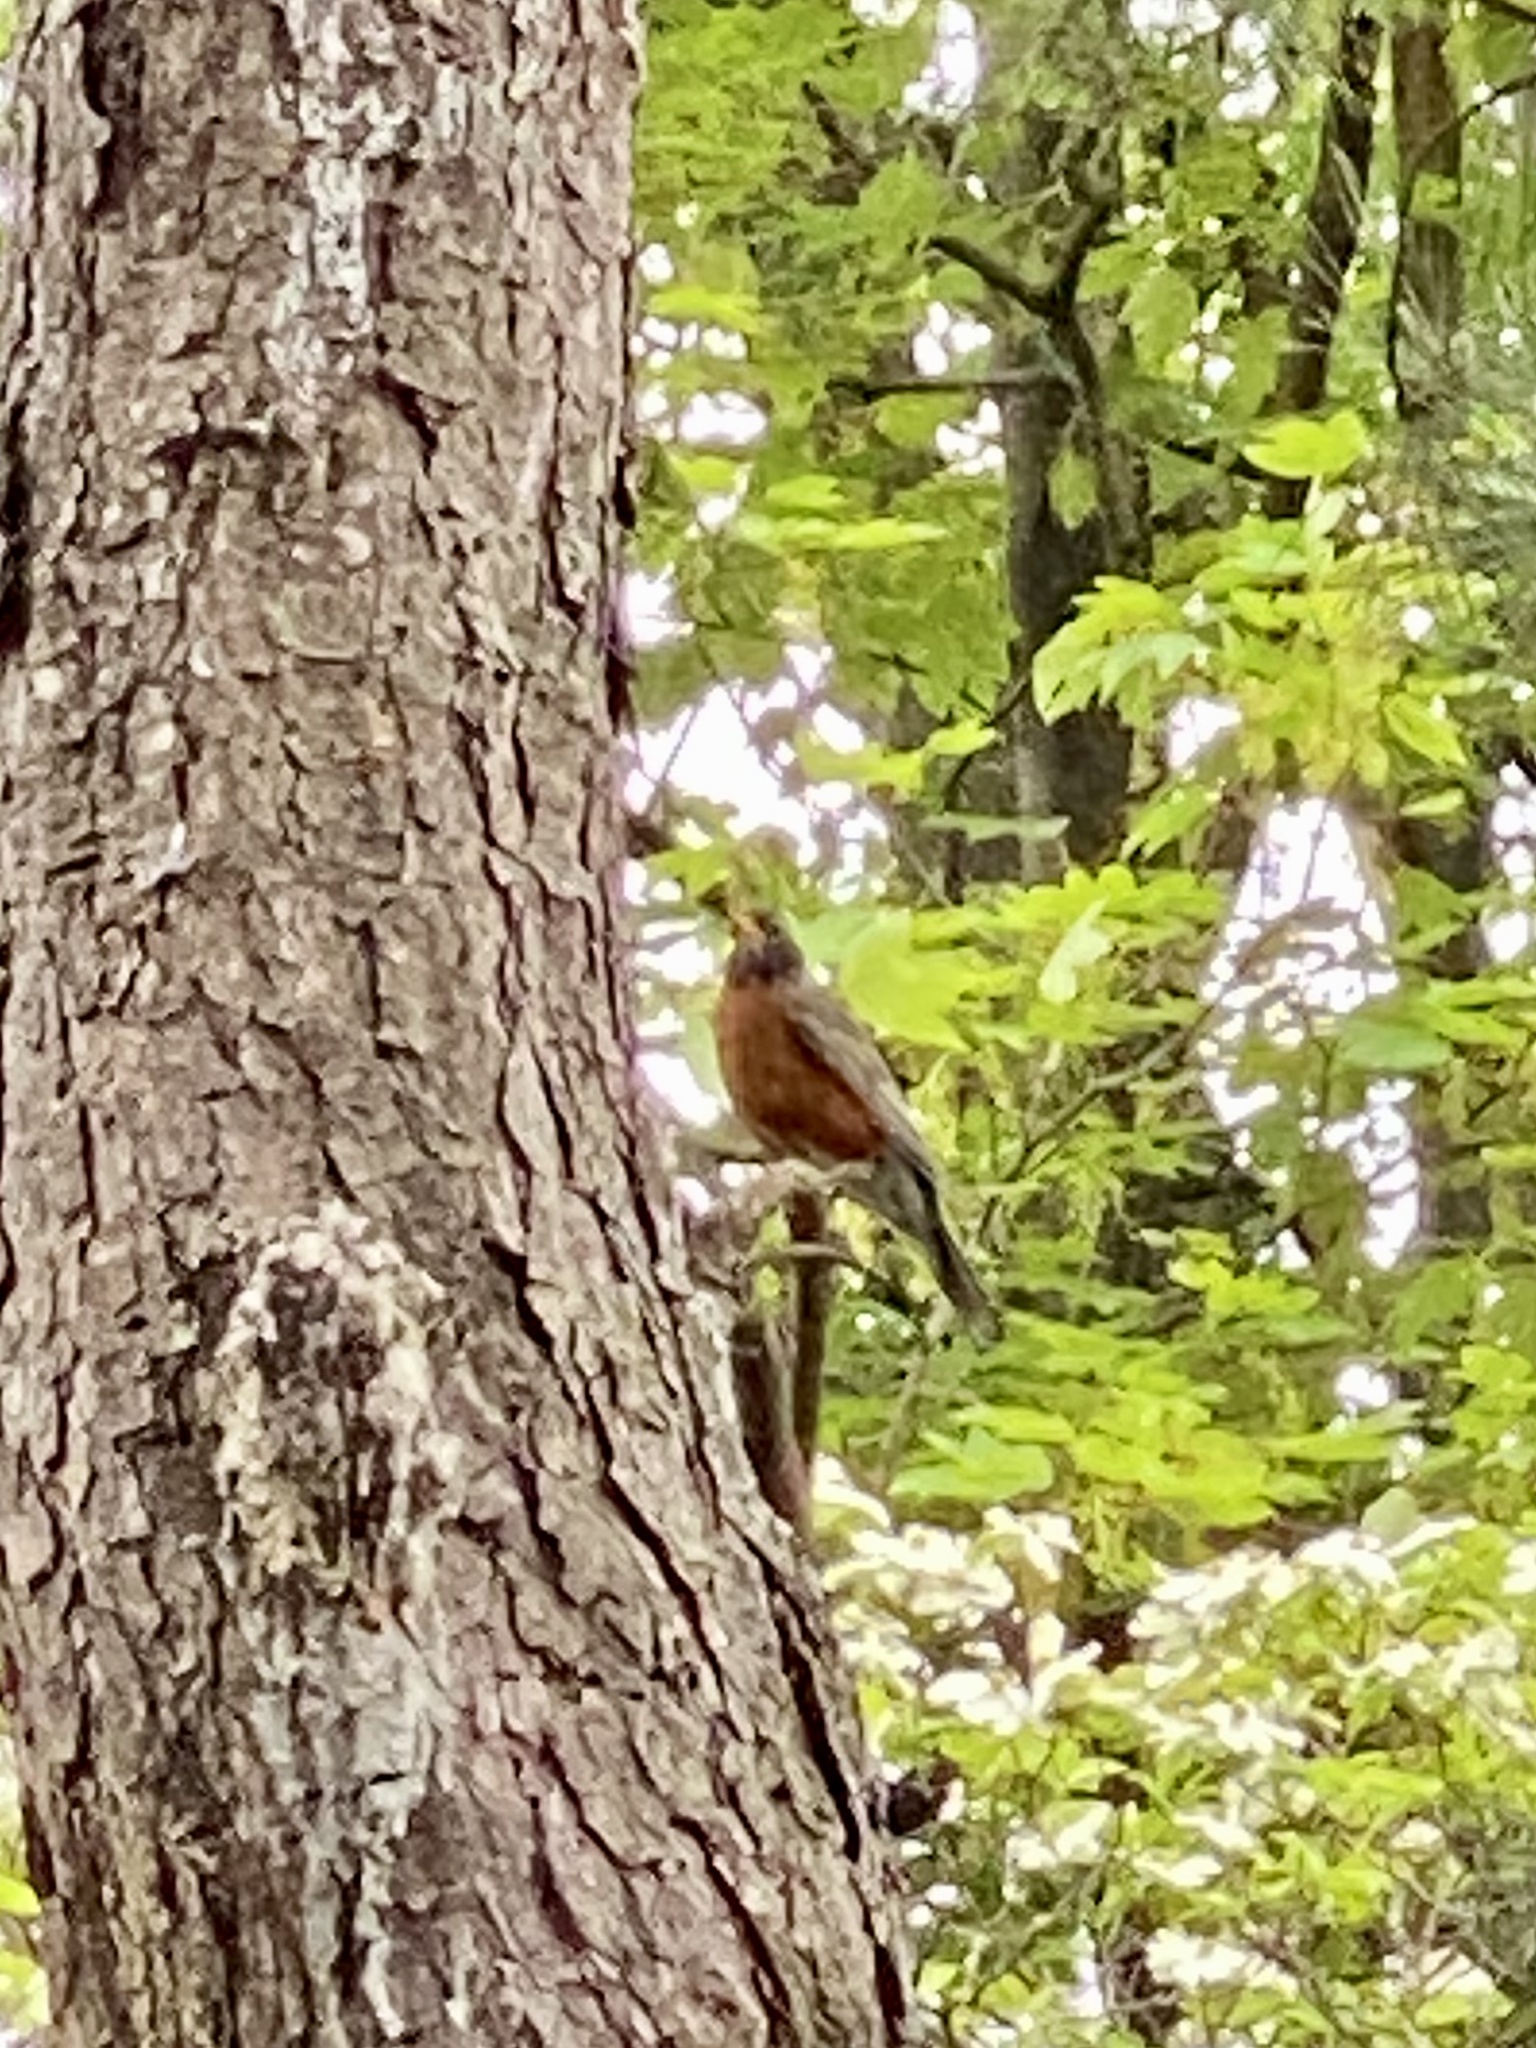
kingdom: Animalia
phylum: Chordata
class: Aves
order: Passeriformes
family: Turdidae
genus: Turdus
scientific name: Turdus migratorius
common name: American robin
